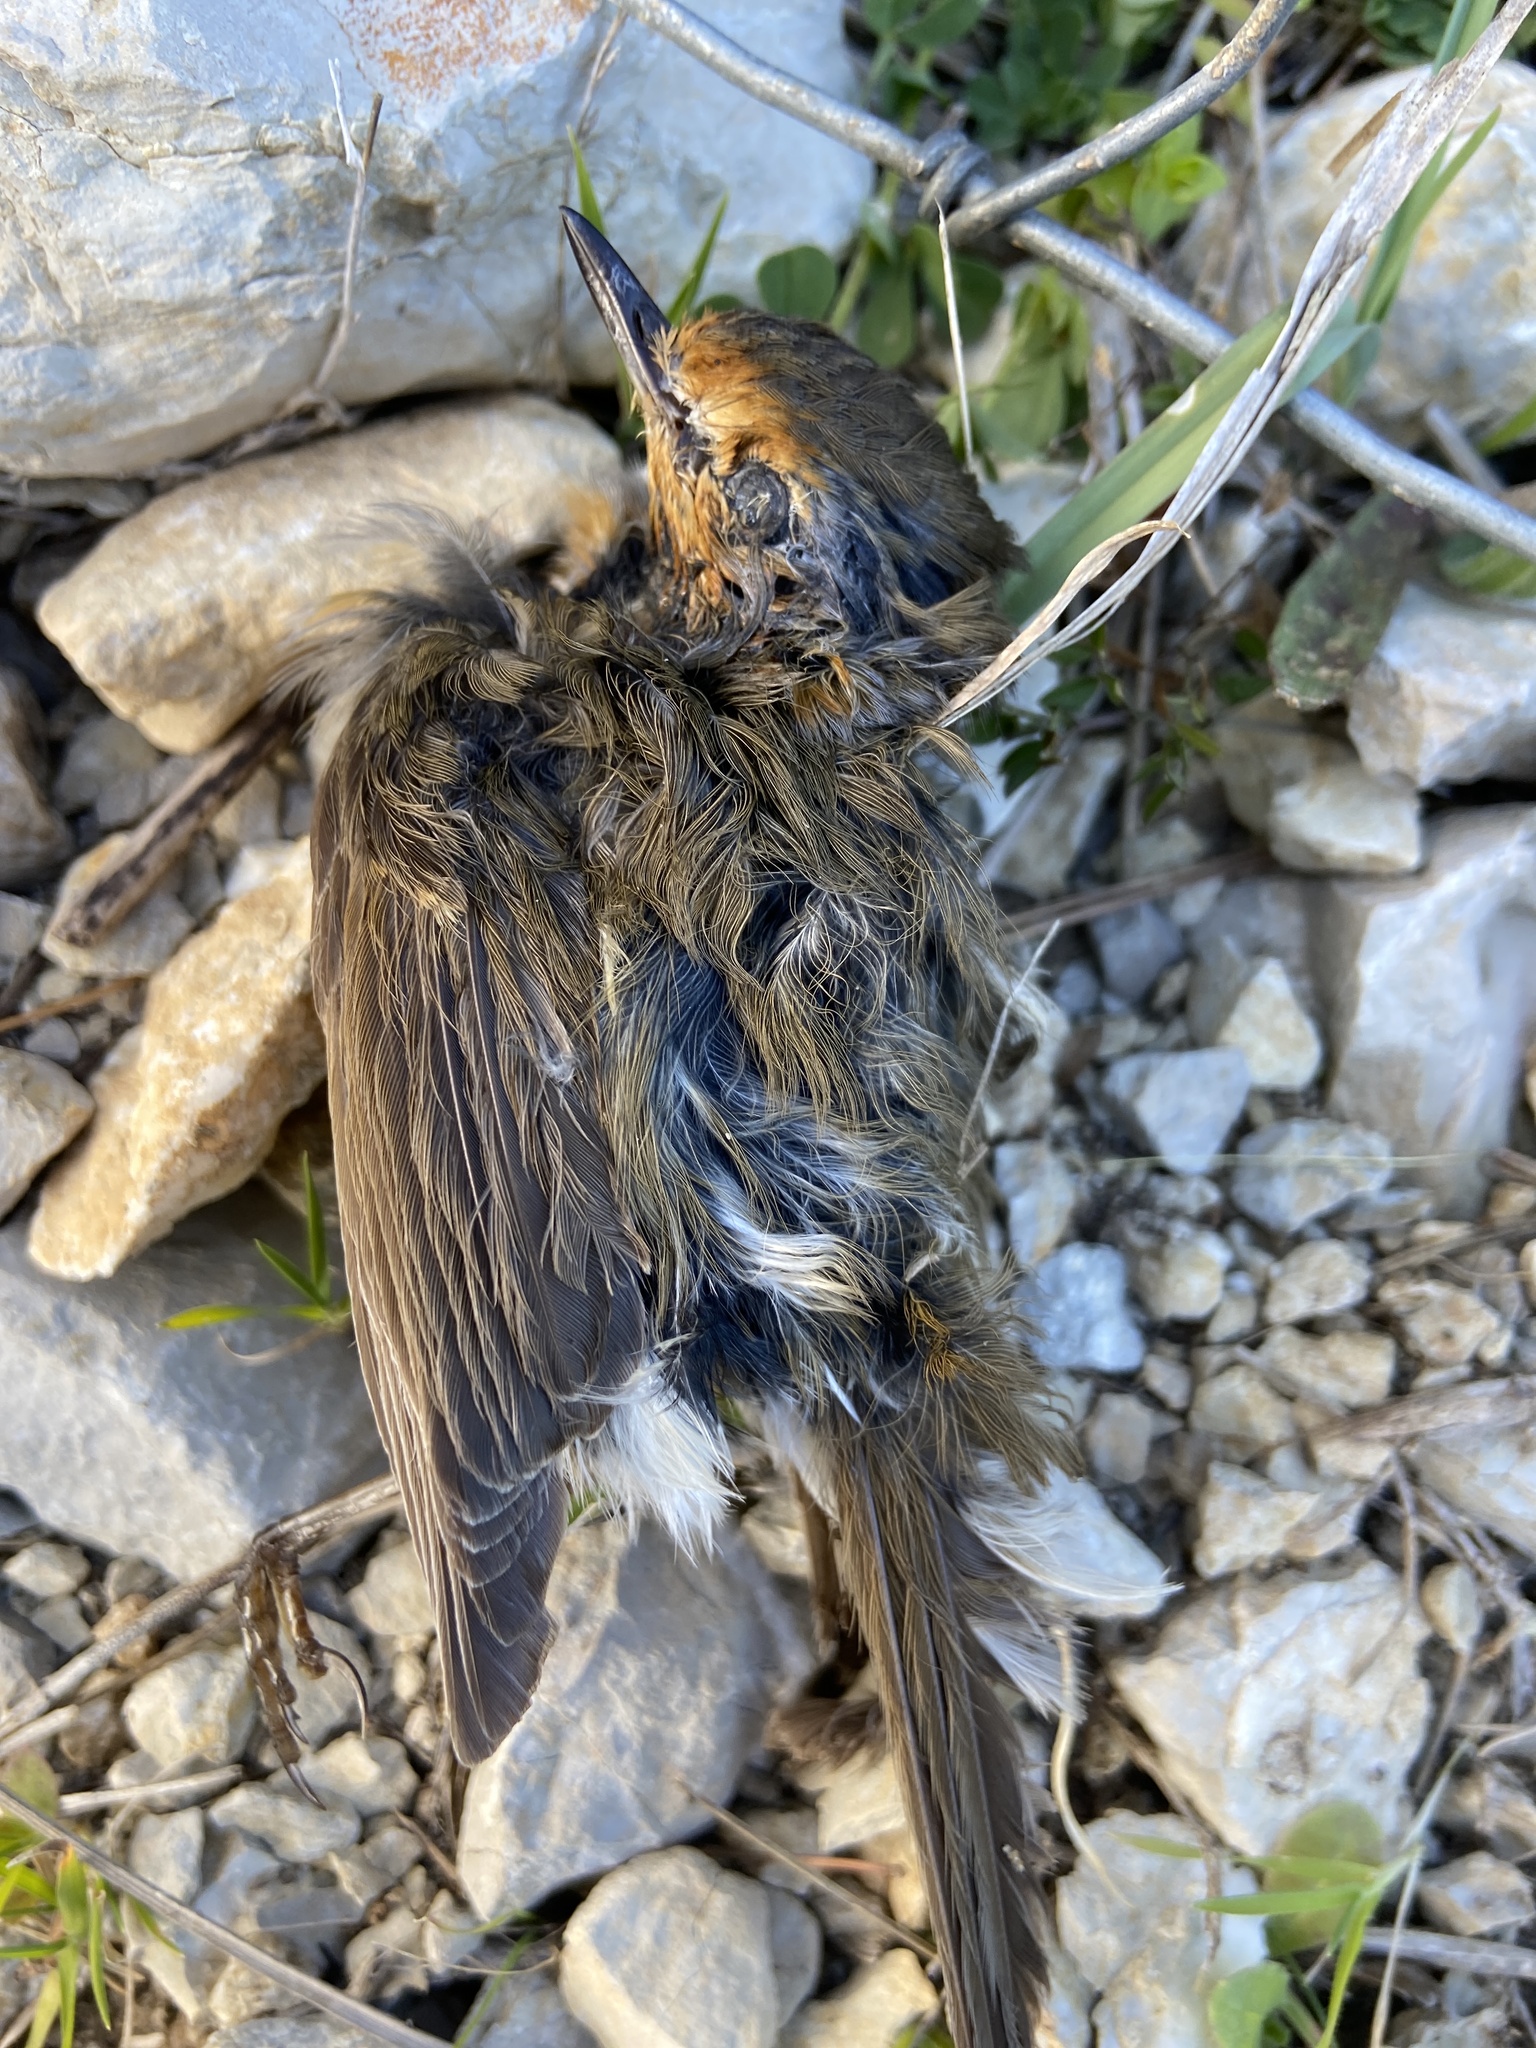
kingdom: Animalia
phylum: Chordata
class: Aves
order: Passeriformes
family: Muscicapidae
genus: Erithacus
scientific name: Erithacus rubecula
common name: European robin
